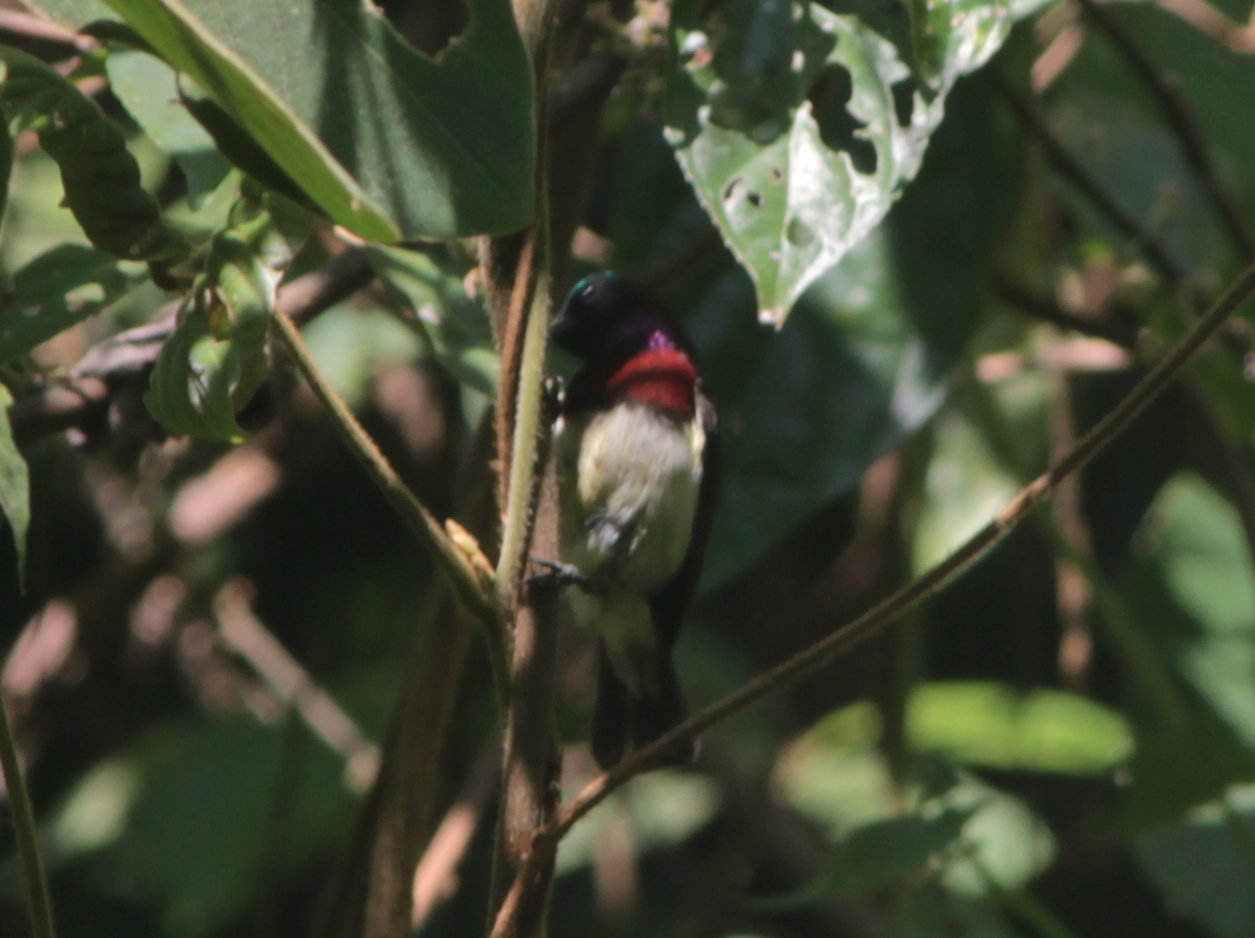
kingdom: Animalia
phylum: Chordata
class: Aves
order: Passeriformes
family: Nectariniidae
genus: Leptocoma
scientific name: Leptocoma minima
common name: Crimson-backed sunbird
